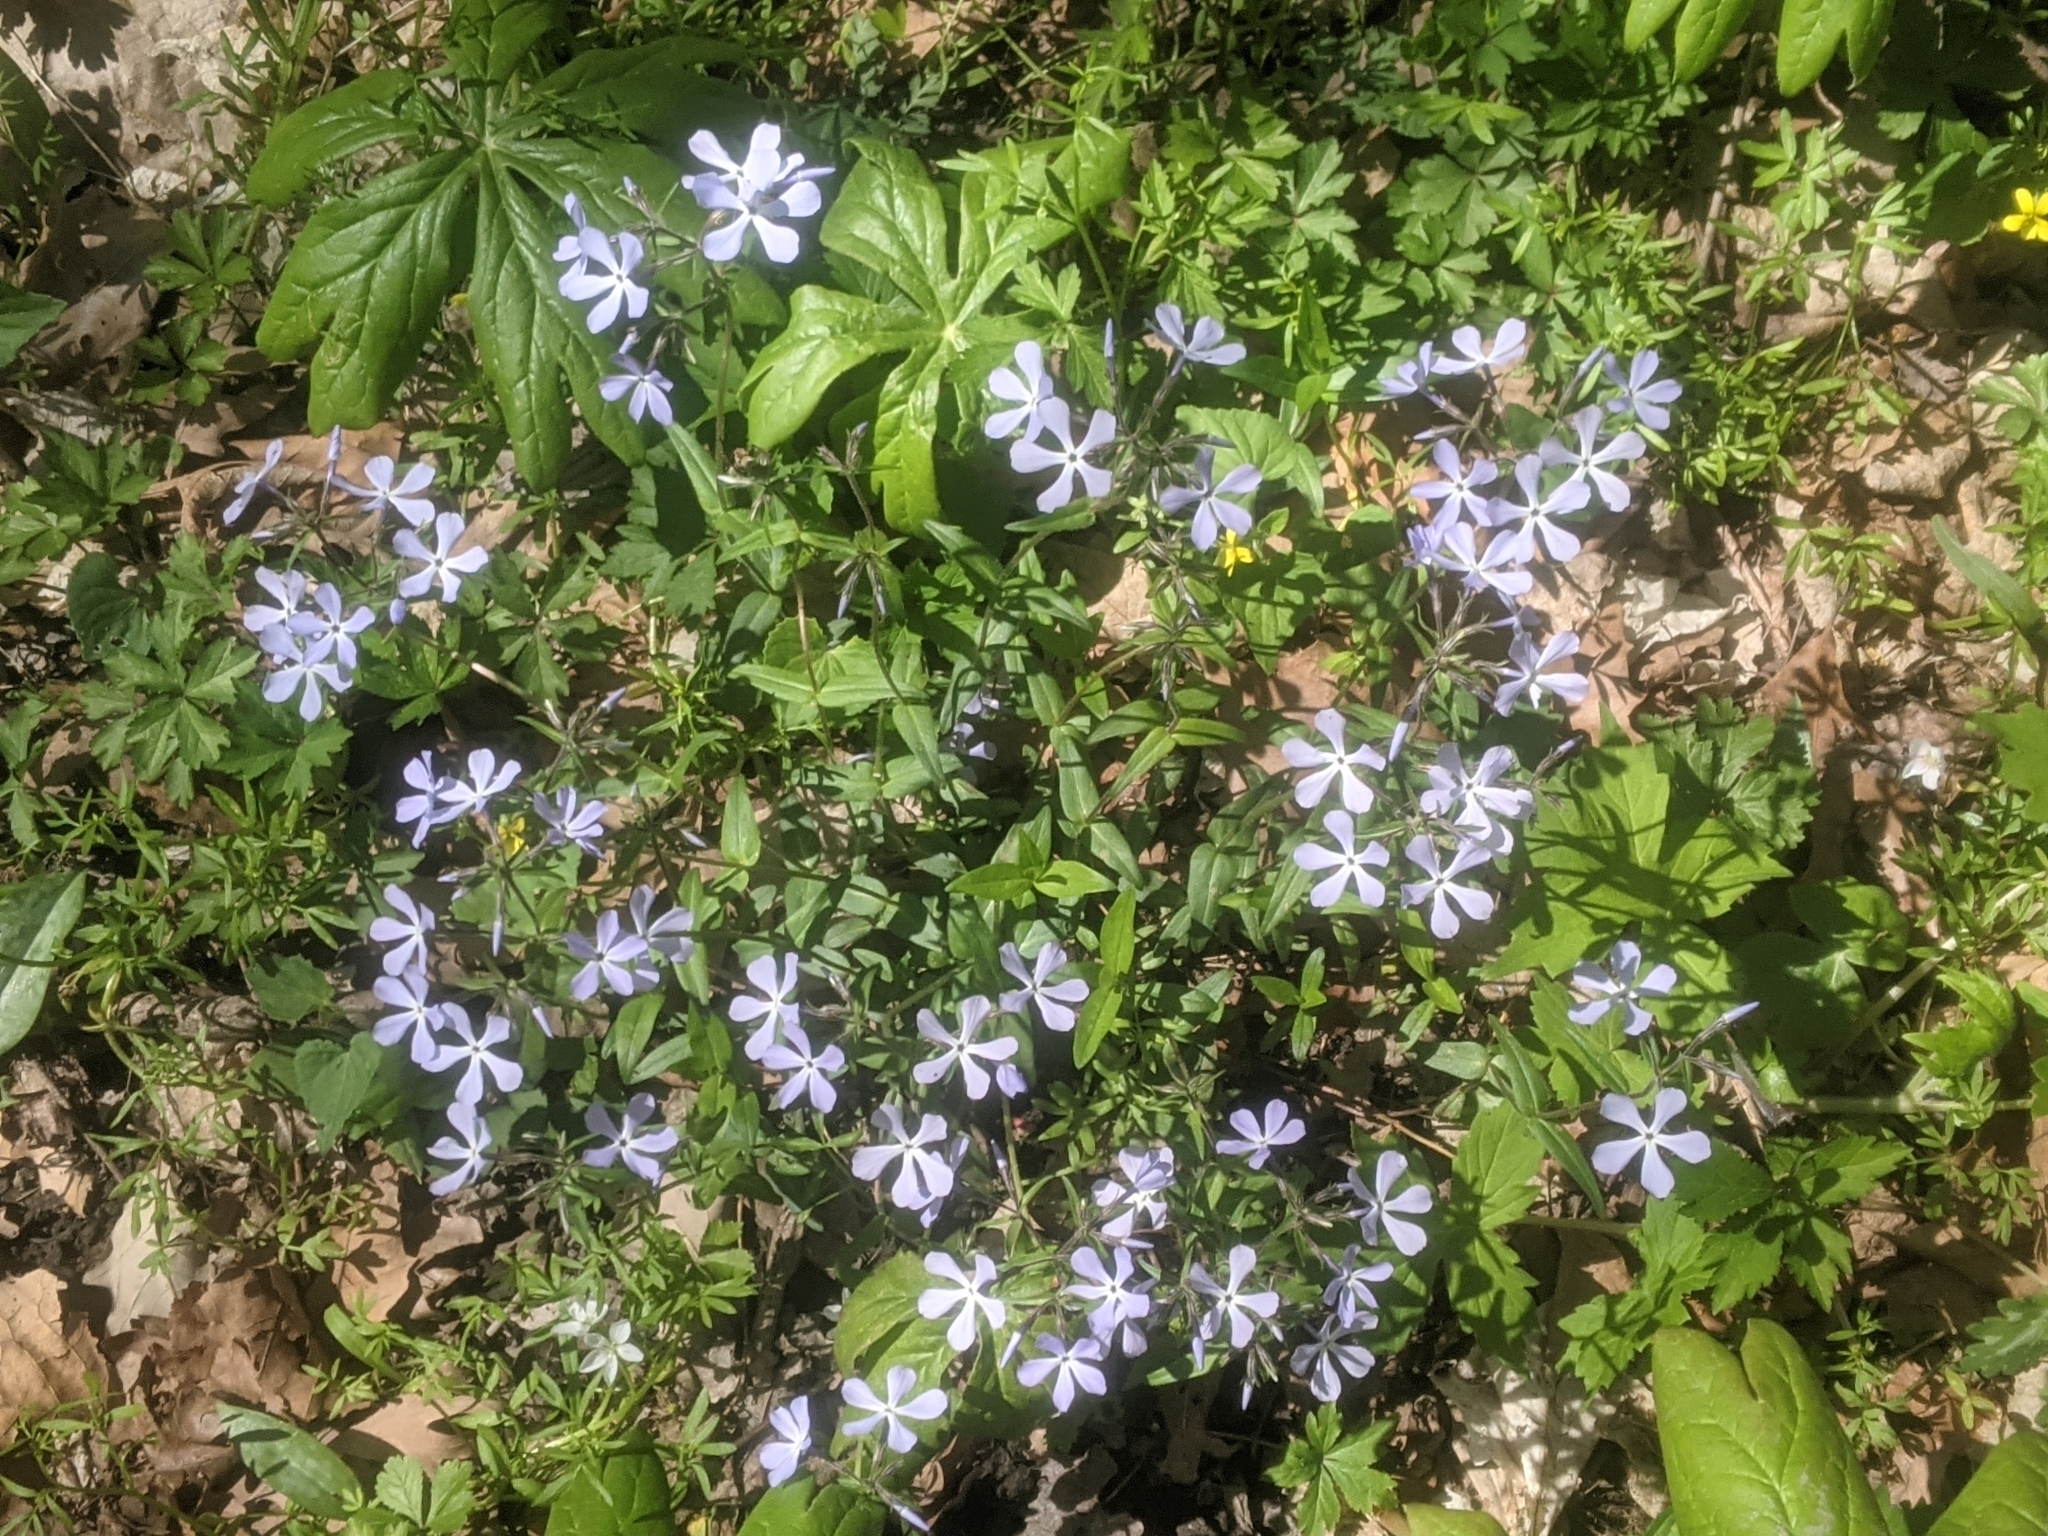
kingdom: Plantae
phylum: Tracheophyta
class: Magnoliopsida
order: Ericales
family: Polemoniaceae
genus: Phlox
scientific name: Phlox divaricata
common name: Blue phlox
